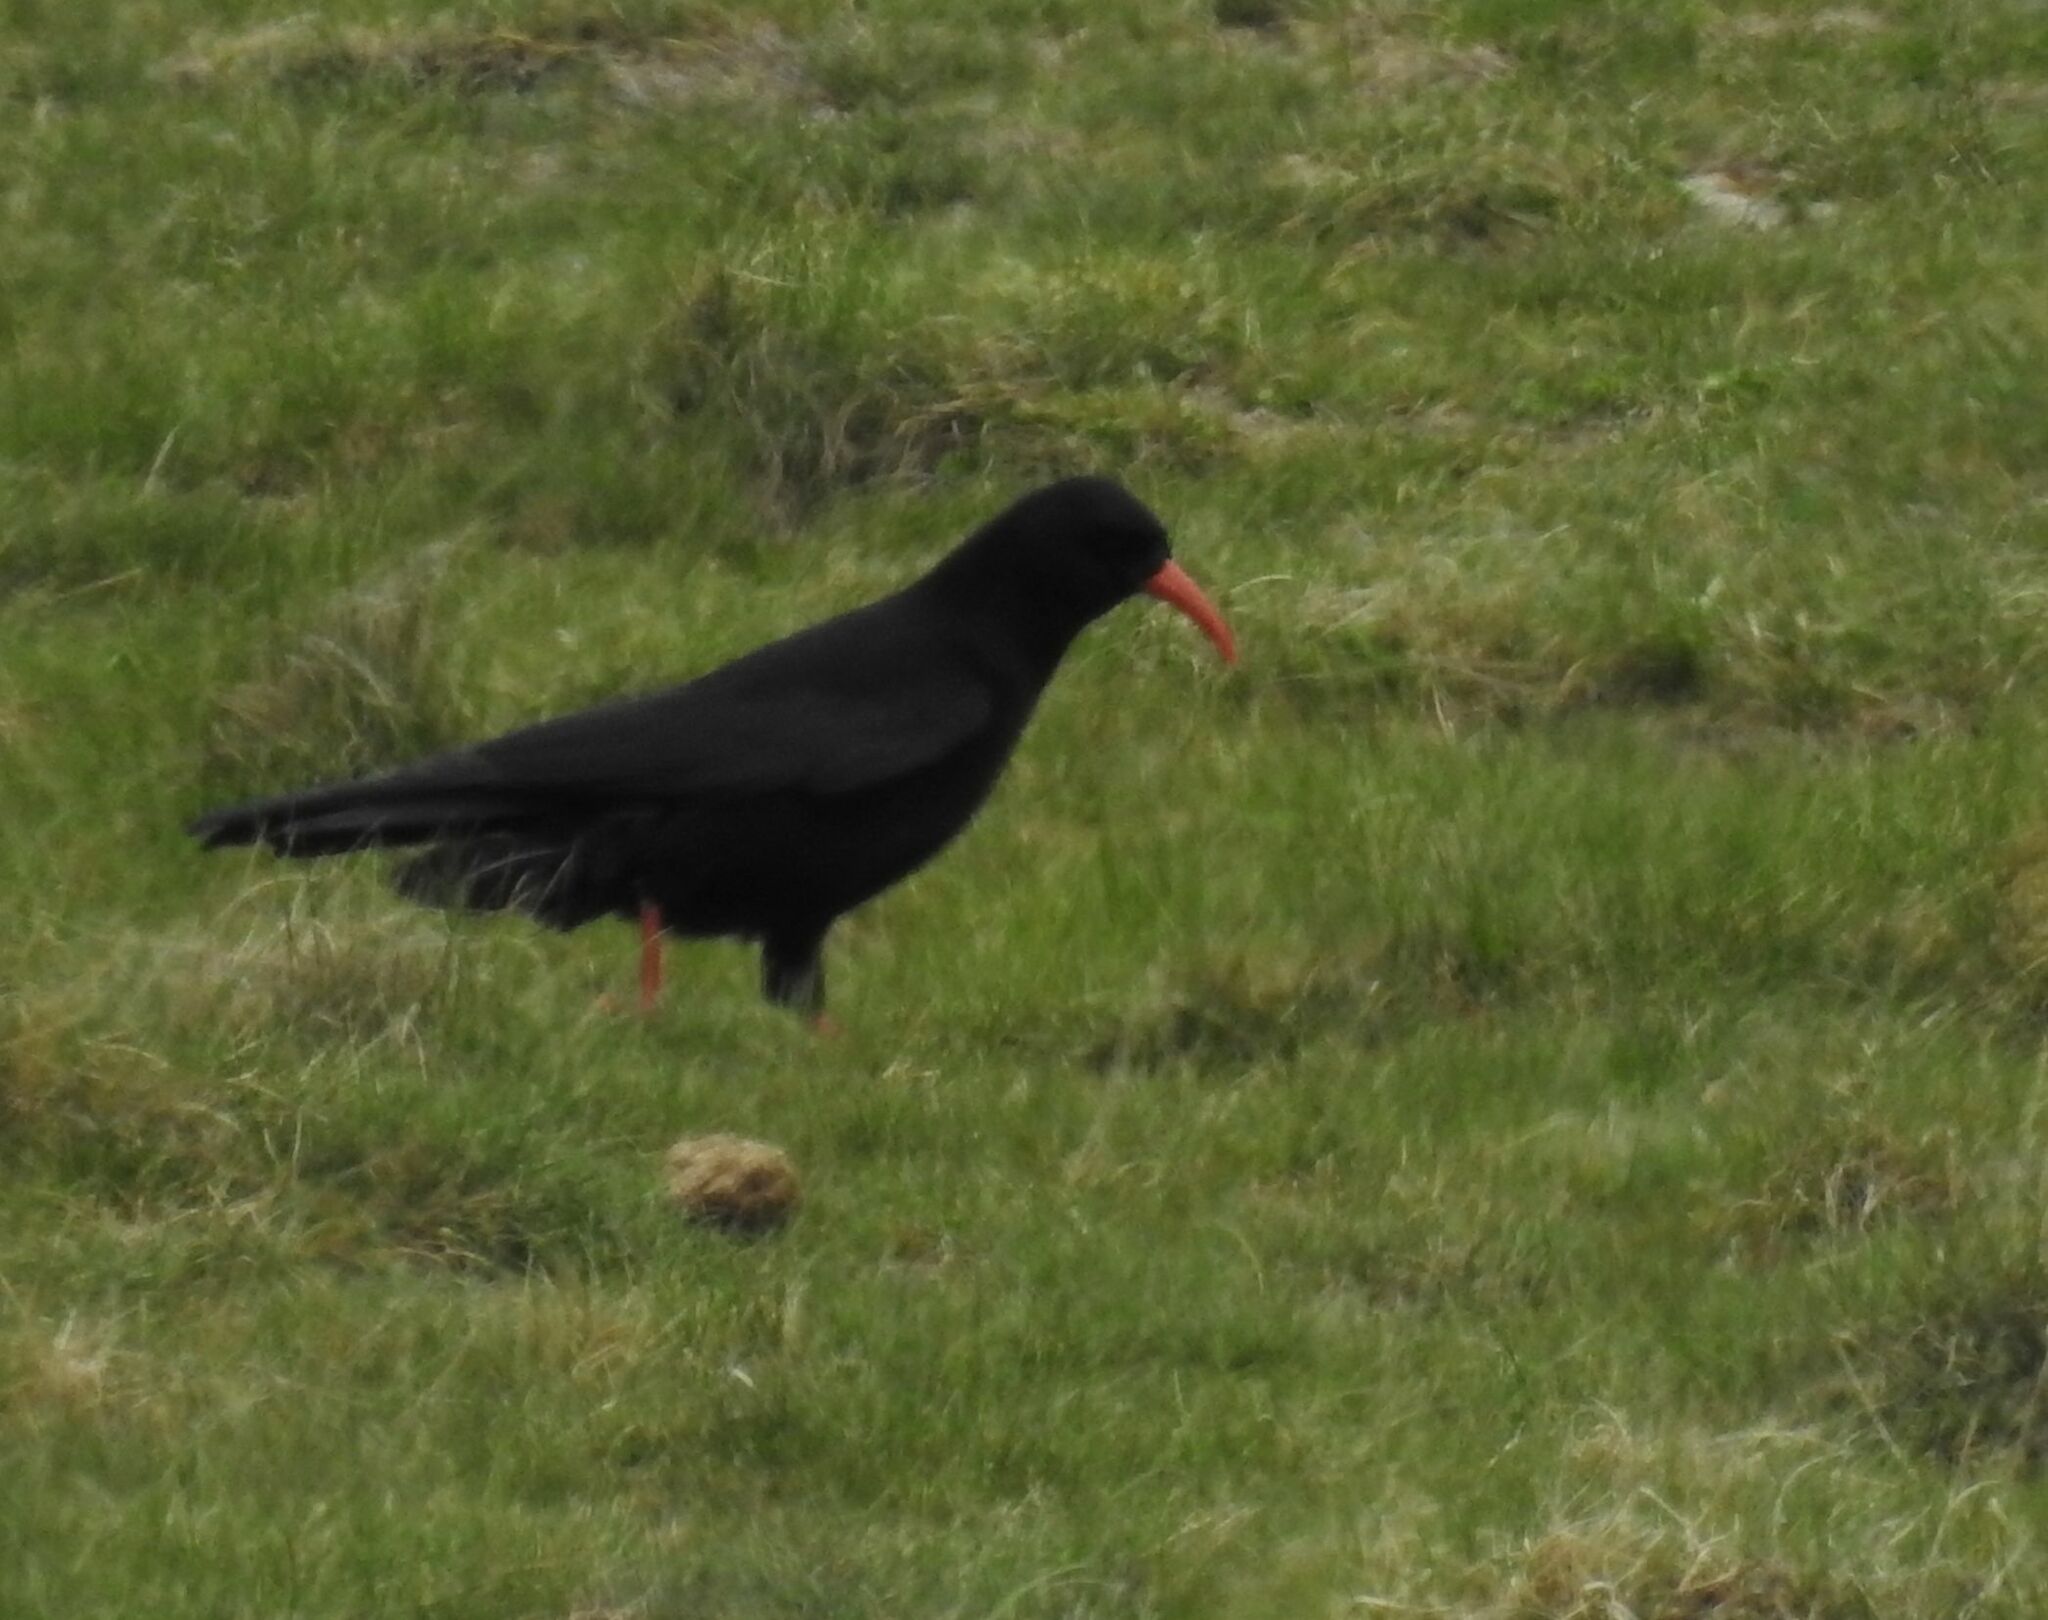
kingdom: Animalia
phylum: Chordata
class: Aves
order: Passeriformes
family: Corvidae
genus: Pyrrhocorax
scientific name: Pyrrhocorax pyrrhocorax
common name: Red-billed chough
